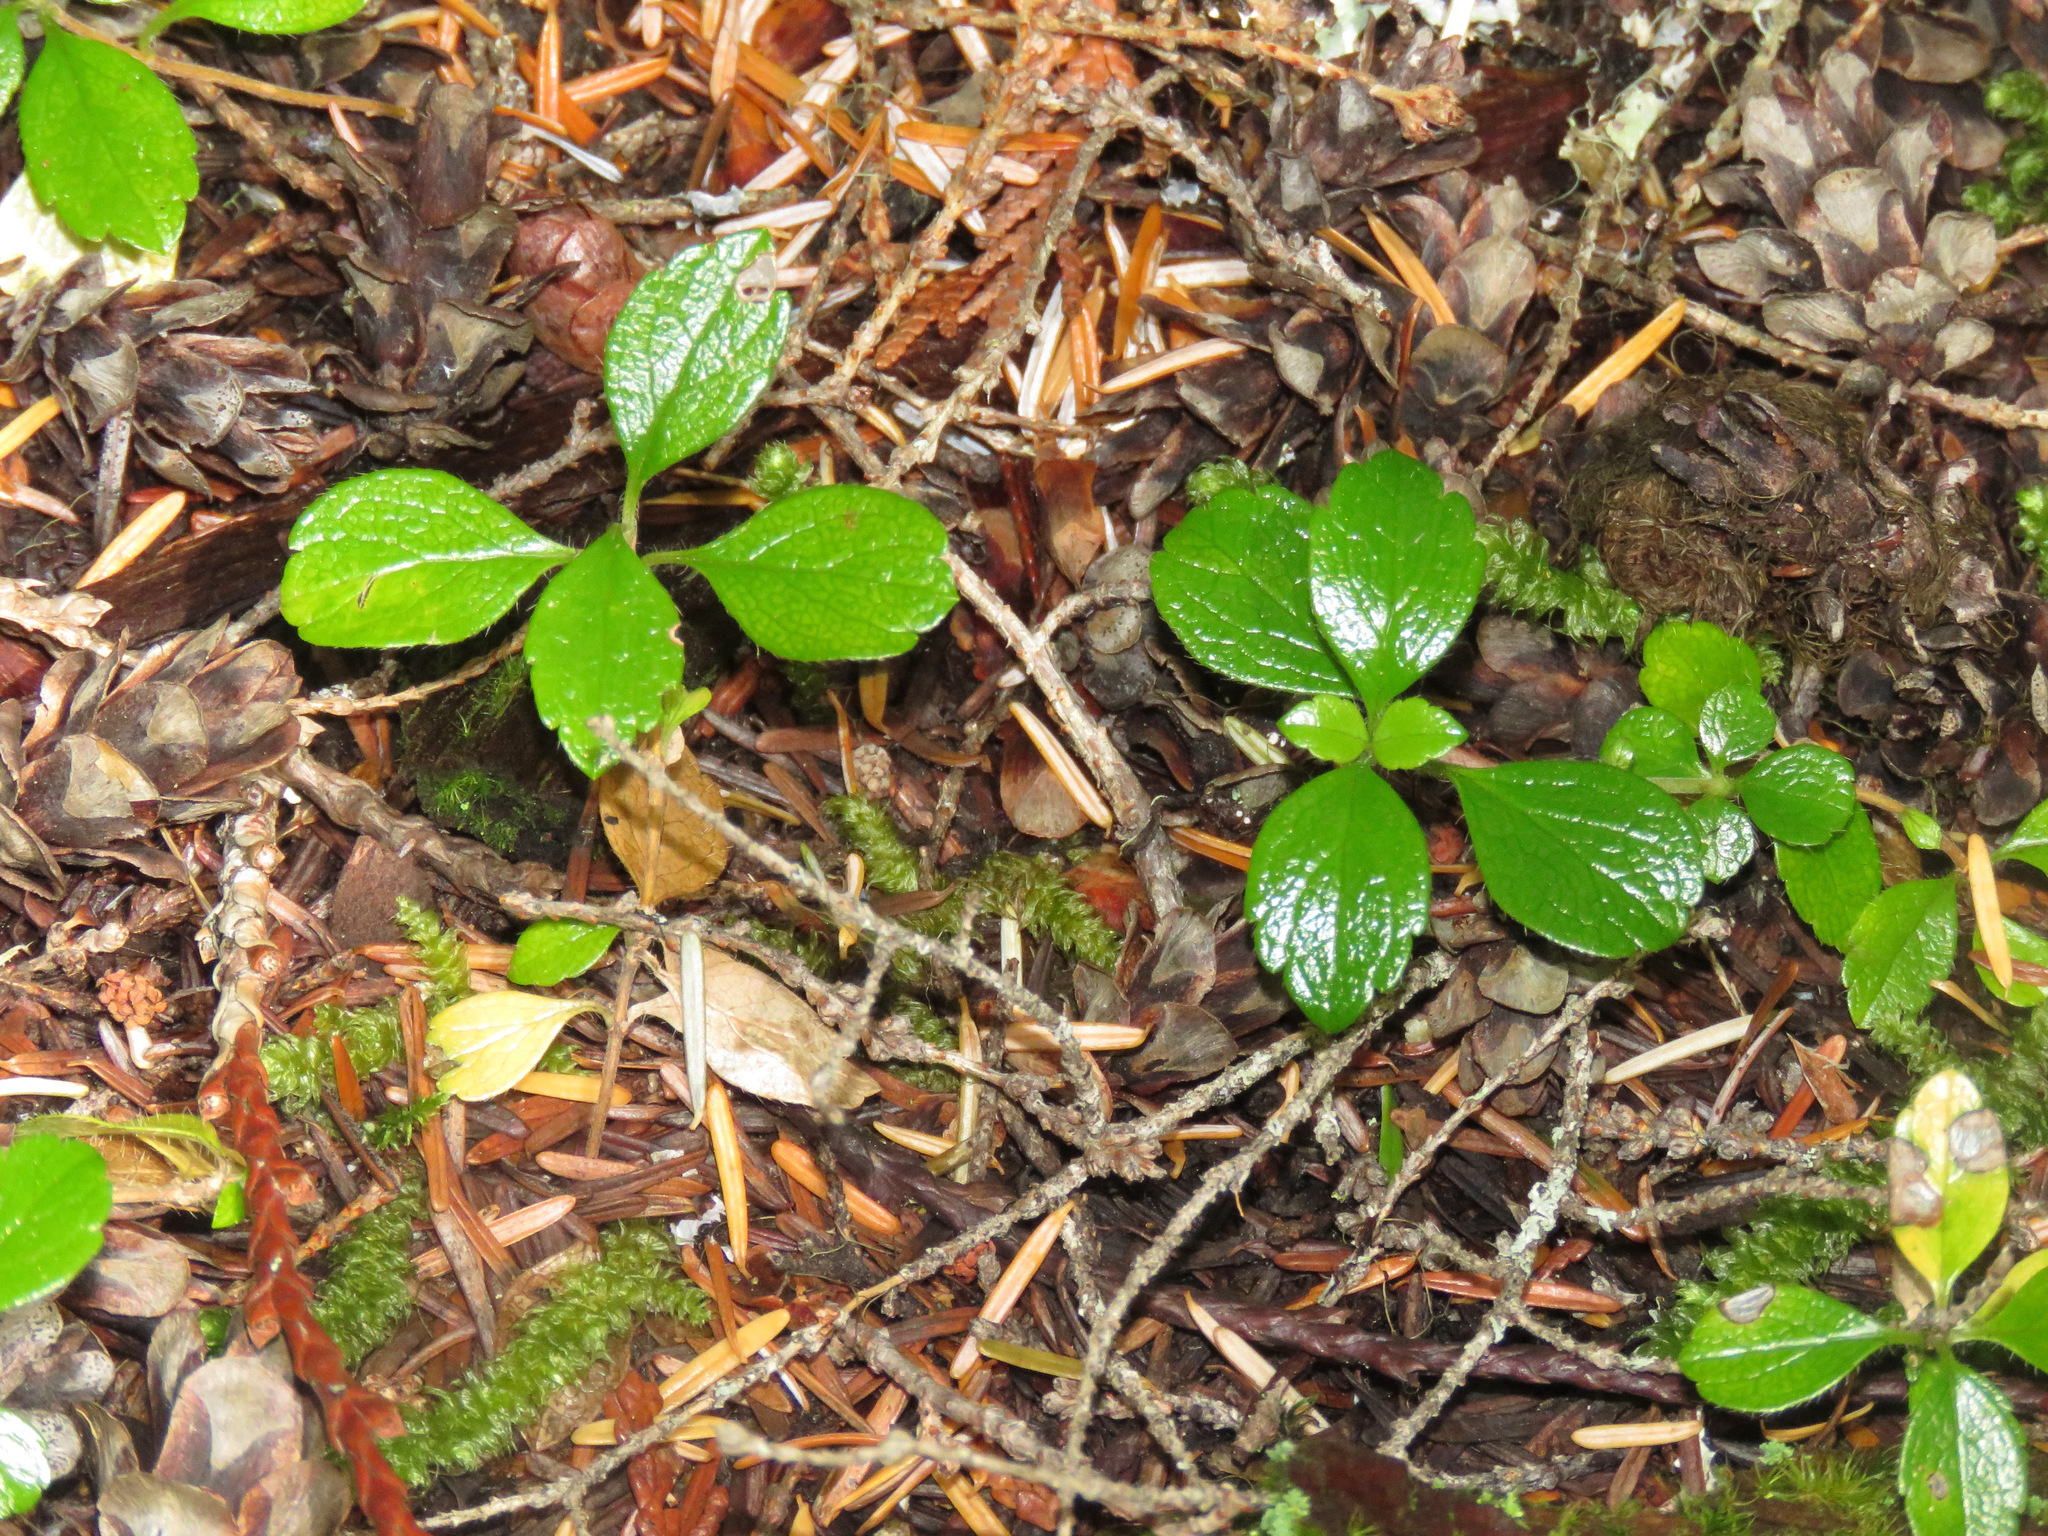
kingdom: Plantae
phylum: Tracheophyta
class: Magnoliopsida
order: Dipsacales
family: Caprifoliaceae
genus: Linnaea
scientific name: Linnaea borealis
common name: Twinflower
